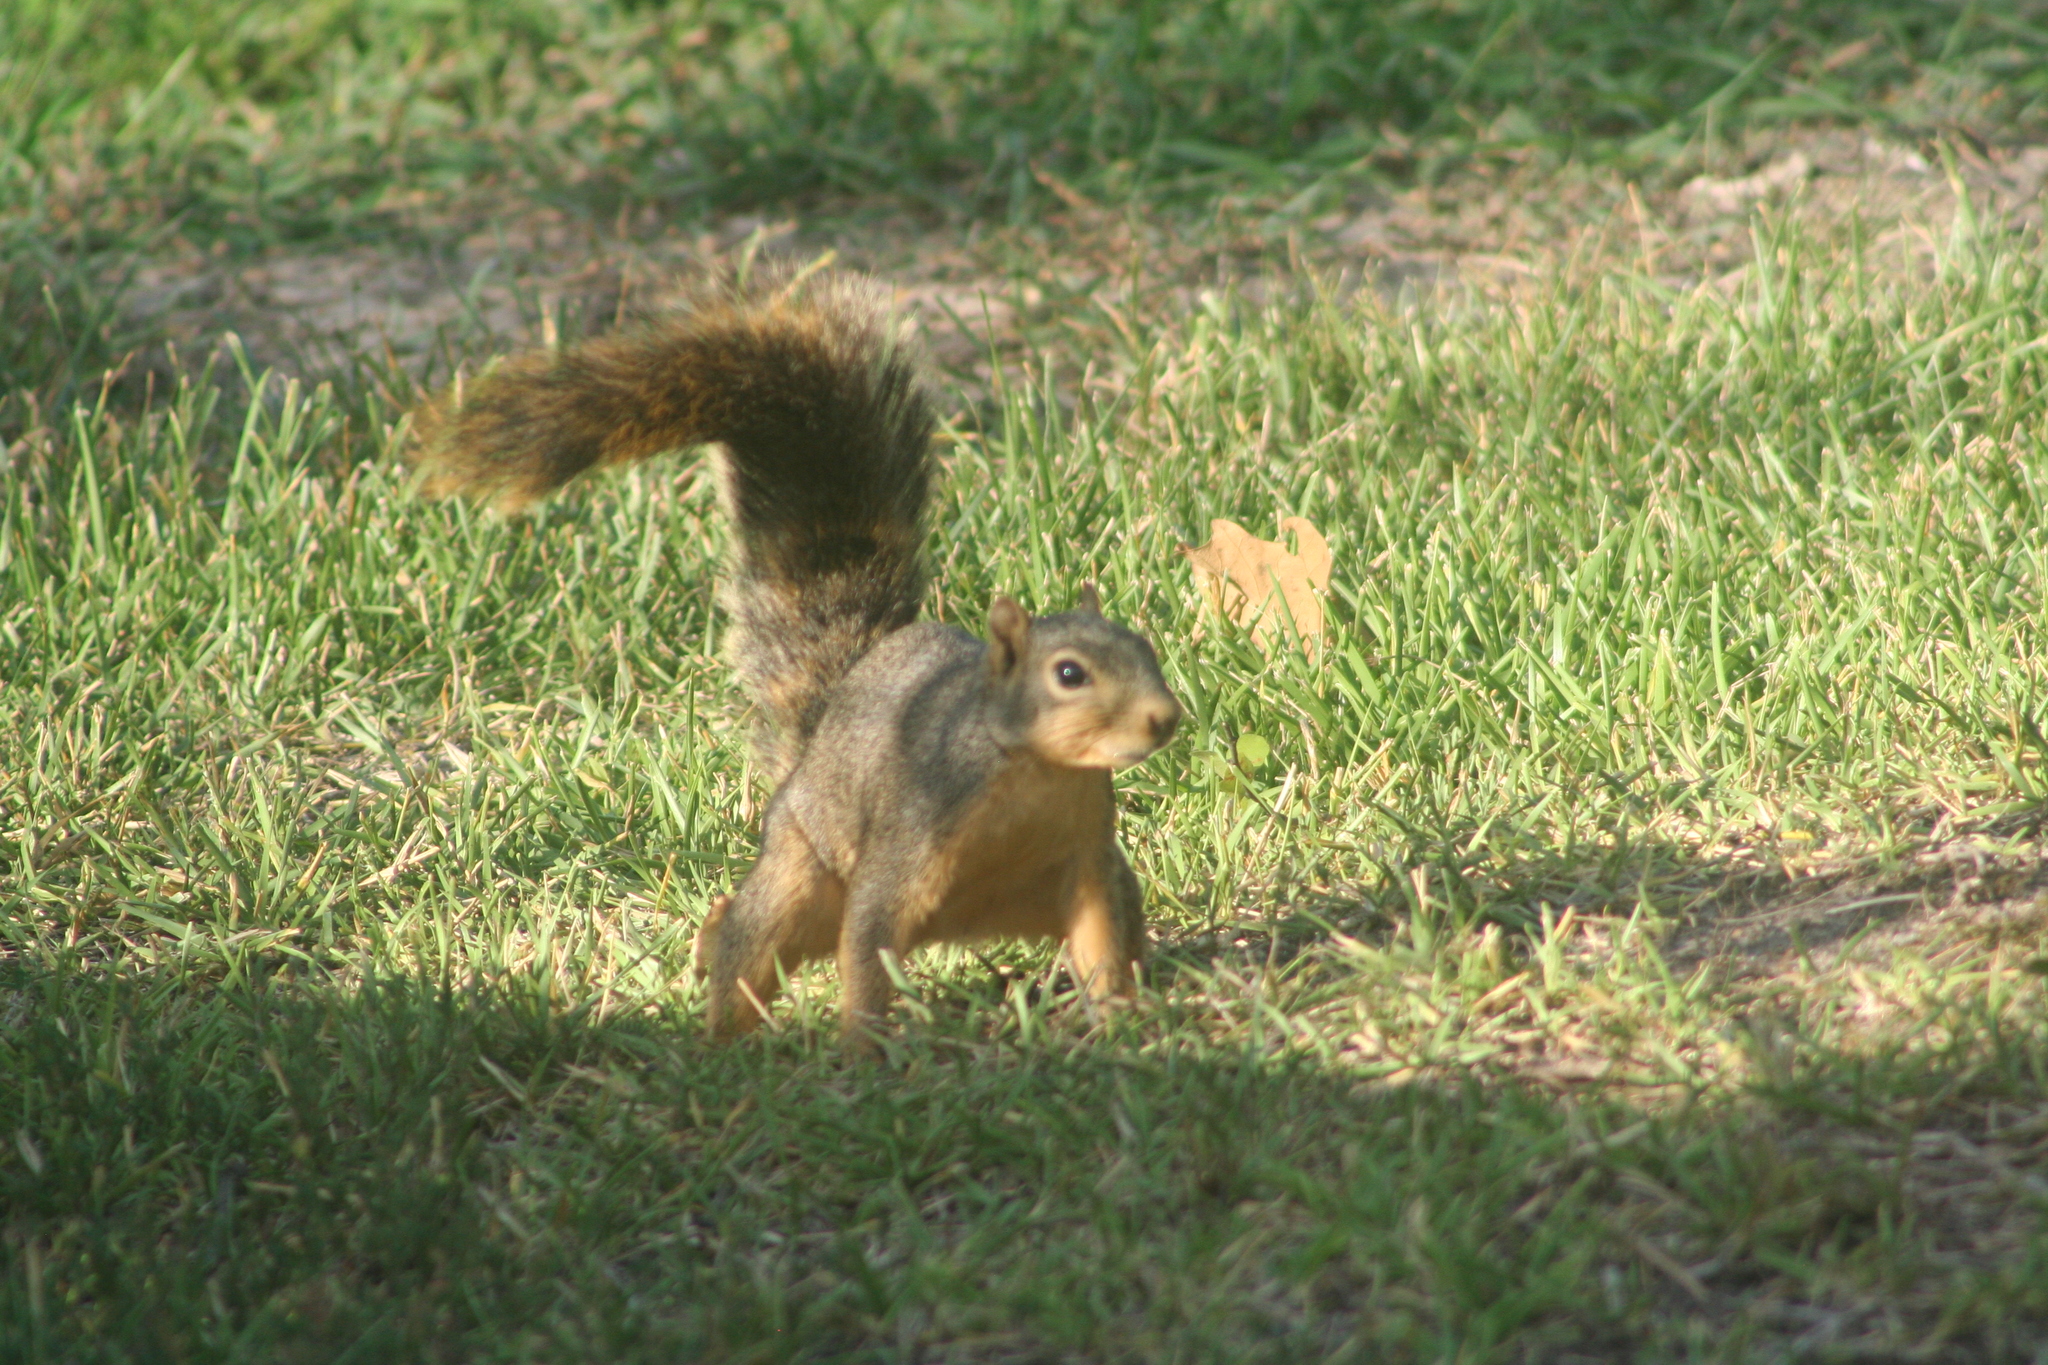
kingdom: Animalia
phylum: Chordata
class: Mammalia
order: Rodentia
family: Sciuridae
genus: Sciurus
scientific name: Sciurus niger
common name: Fox squirrel
